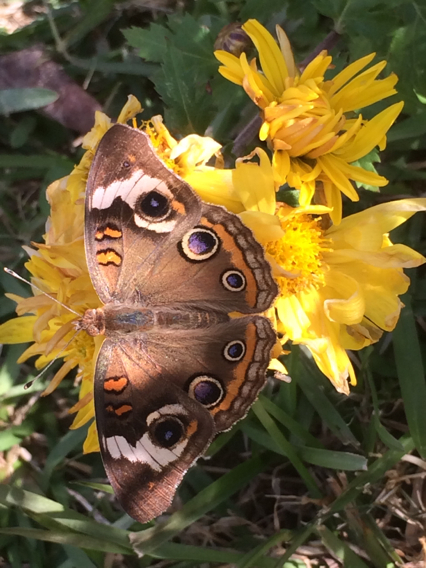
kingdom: Animalia
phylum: Arthropoda
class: Insecta
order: Lepidoptera
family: Nymphalidae
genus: Junonia
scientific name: Junonia coenia
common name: Common buckeye
